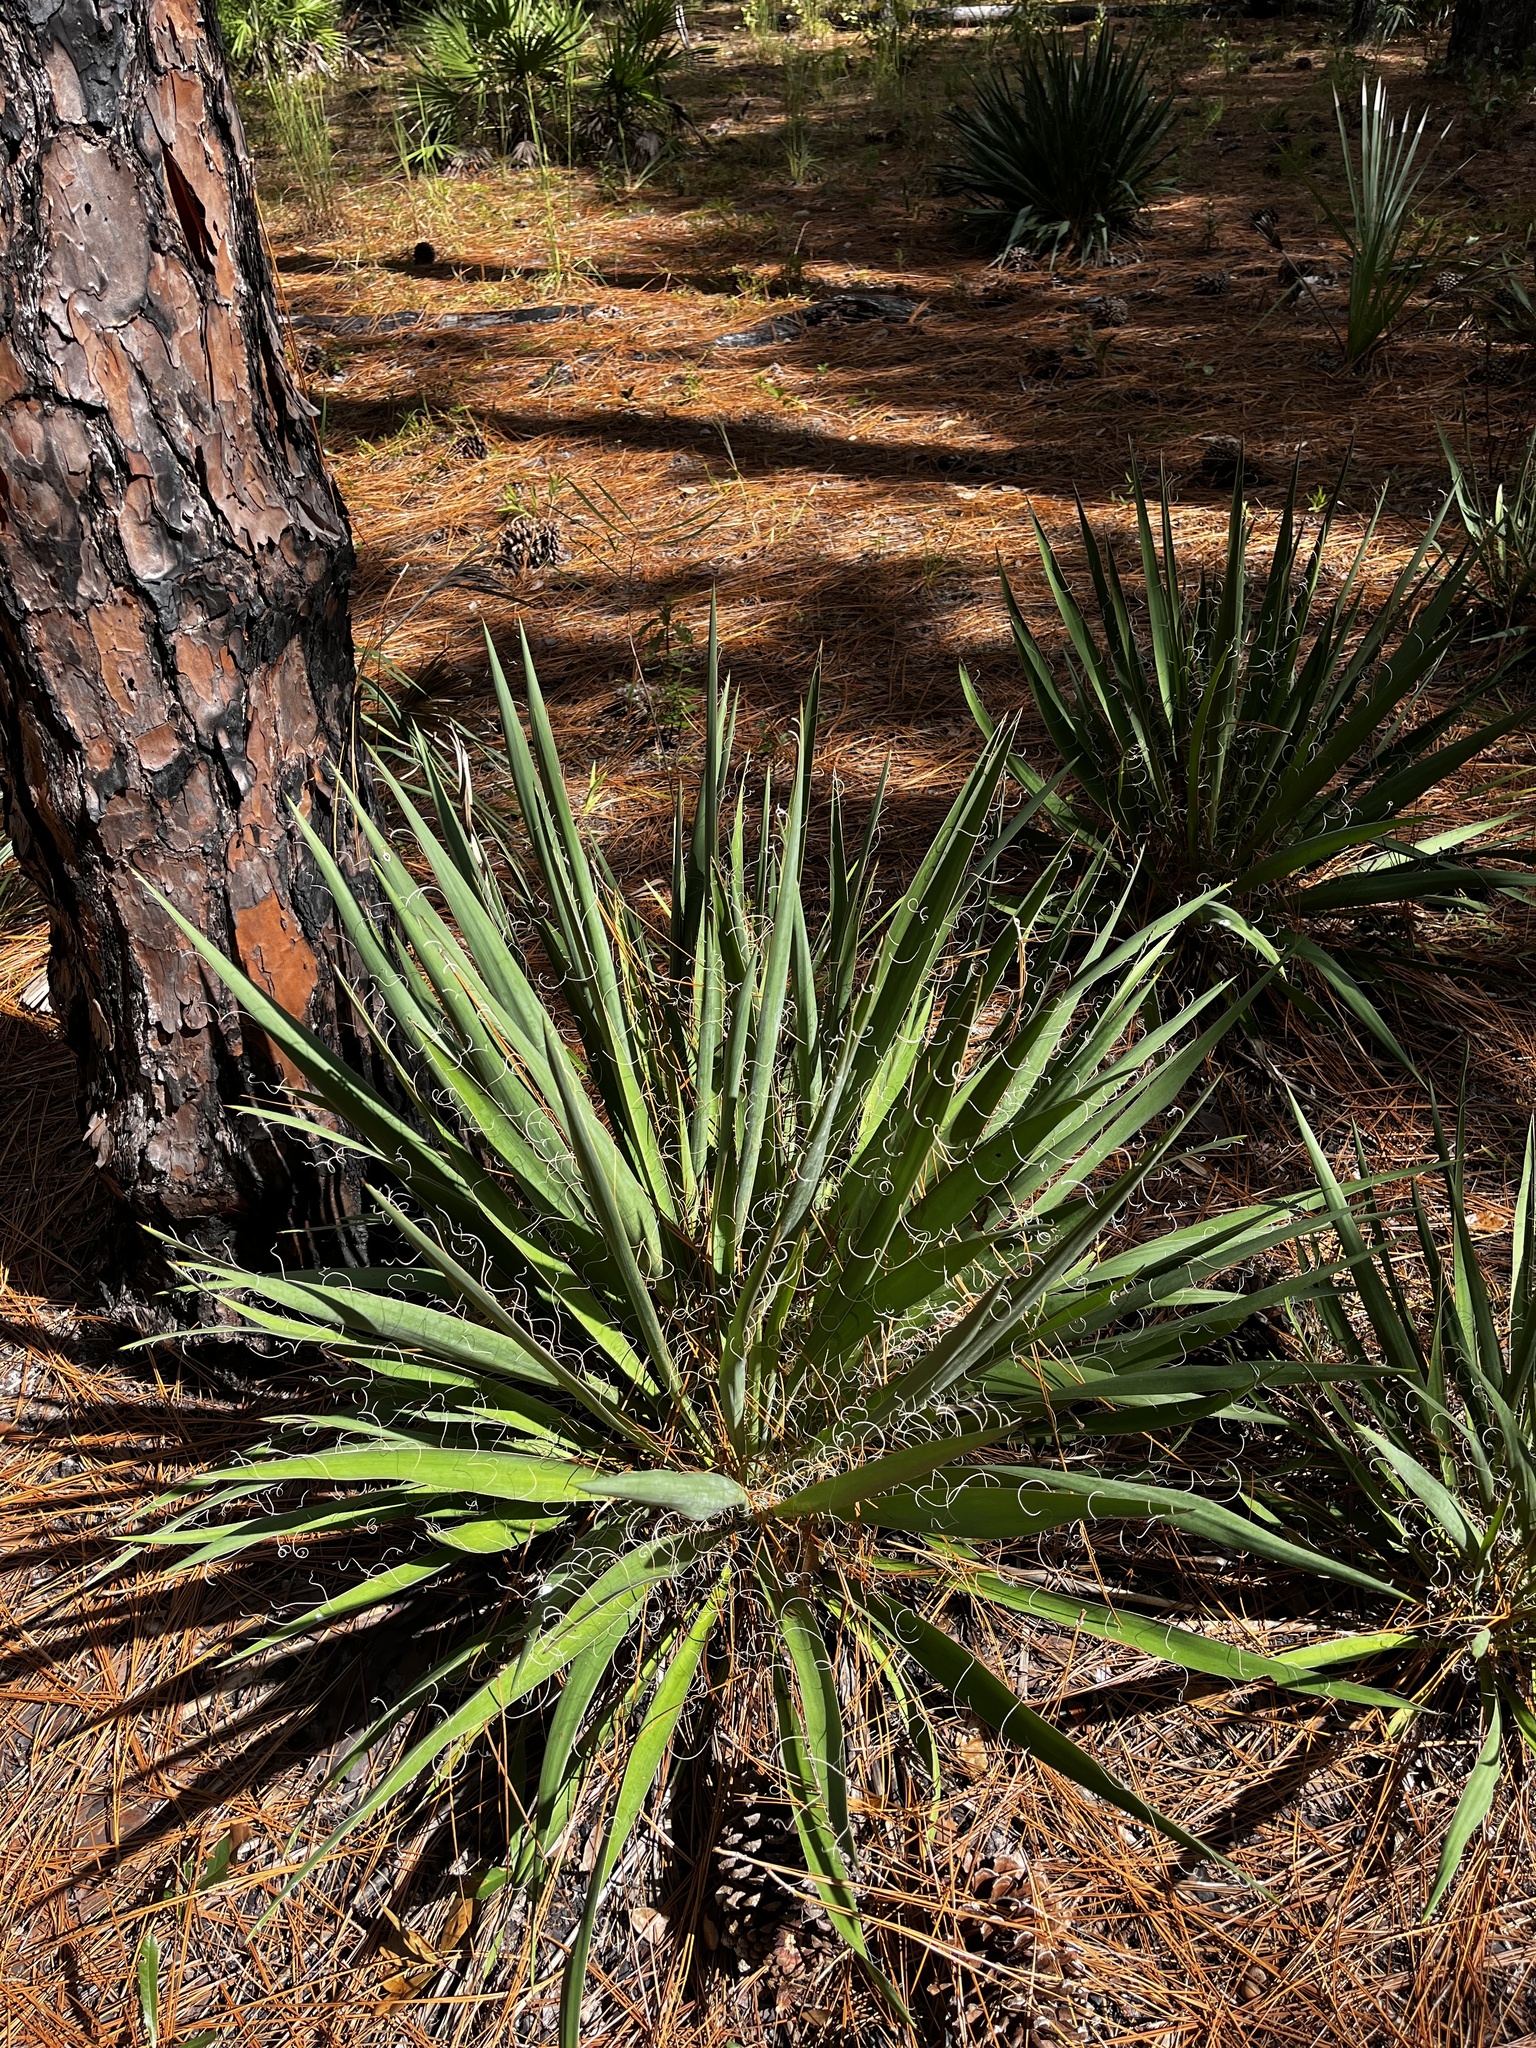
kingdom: Plantae
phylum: Tracheophyta
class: Liliopsida
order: Asparagales
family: Asparagaceae
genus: Yucca
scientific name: Yucca filamentosa
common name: Adam's-needle
